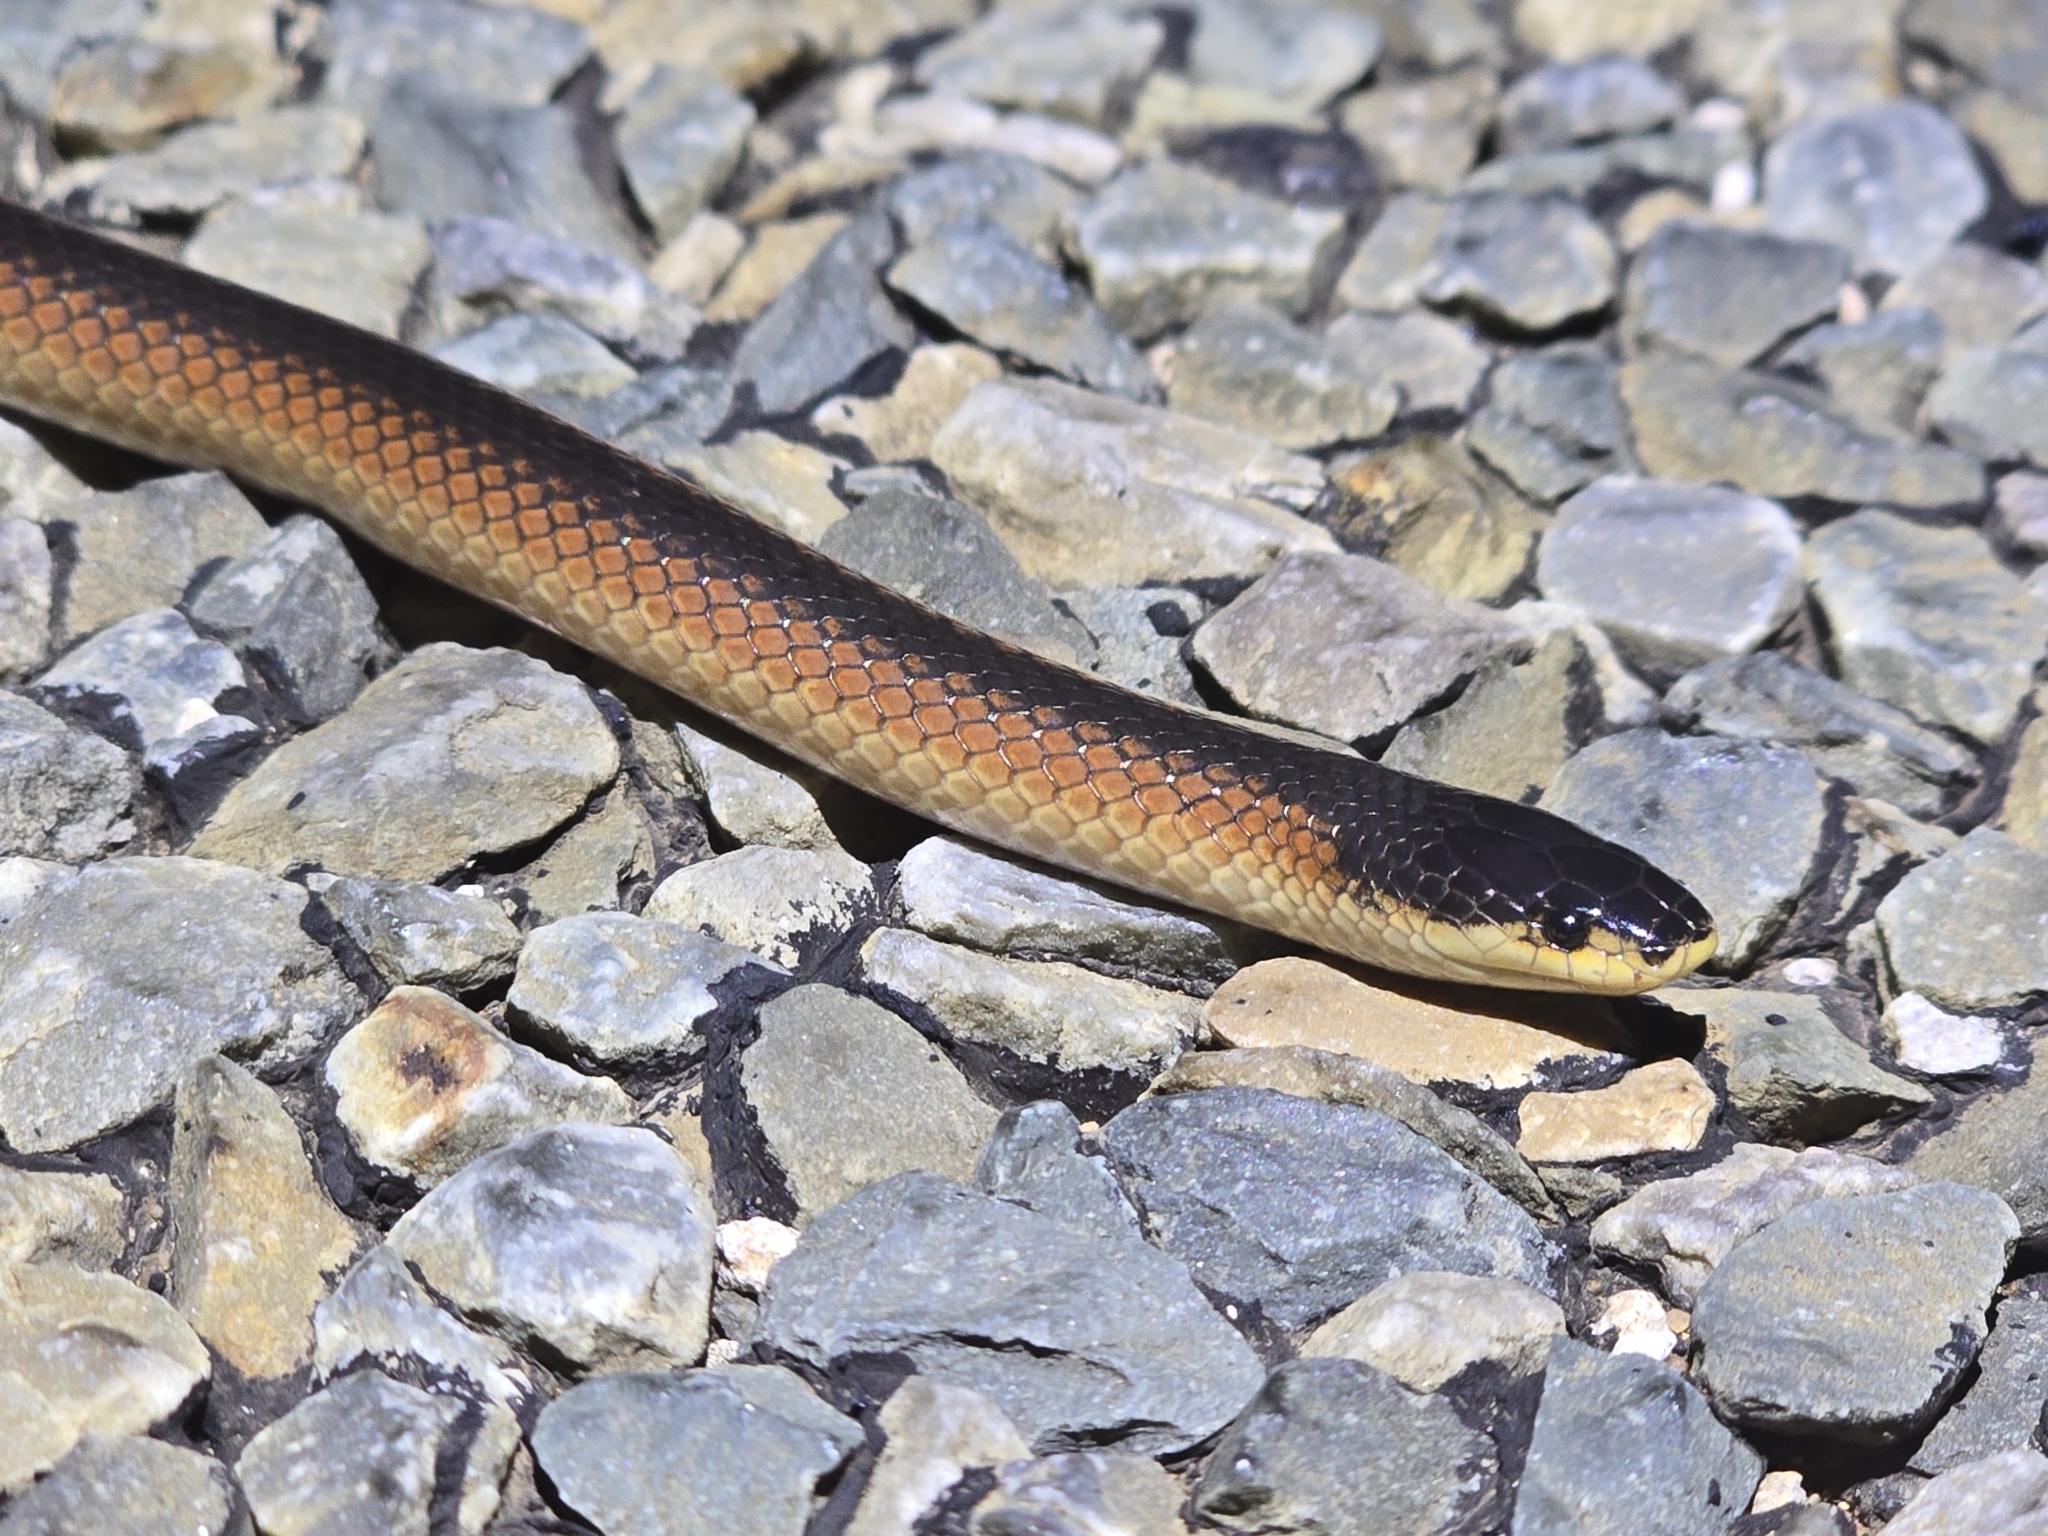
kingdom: Animalia
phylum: Chordata
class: Squamata
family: Elapidae
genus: Suta
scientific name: Suta nigriceps
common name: Mallee black-backed snake
